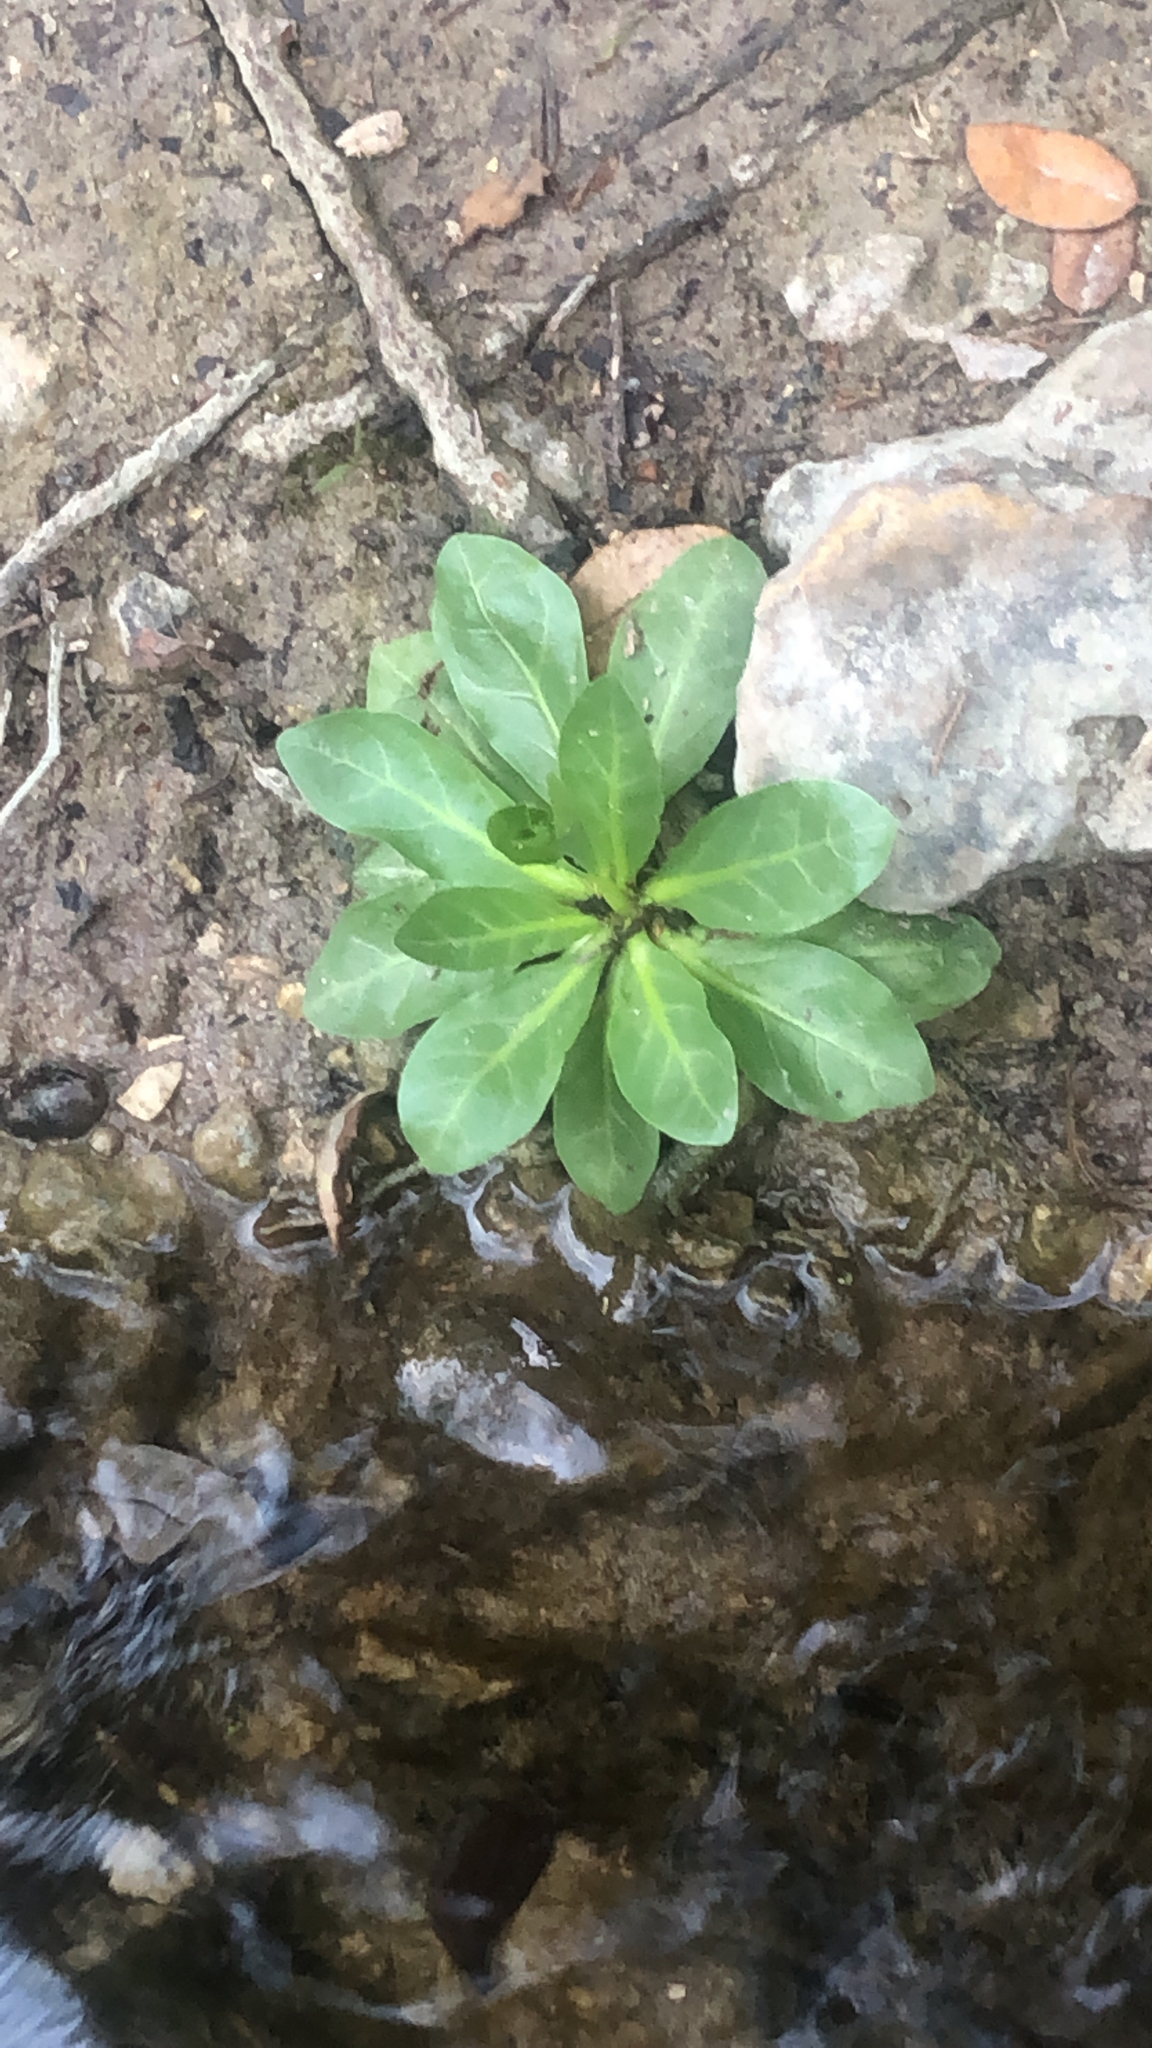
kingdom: Plantae
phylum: Tracheophyta
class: Magnoliopsida
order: Ericales
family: Primulaceae
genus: Samolus
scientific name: Samolus parviflorus
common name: False water pimpernel
